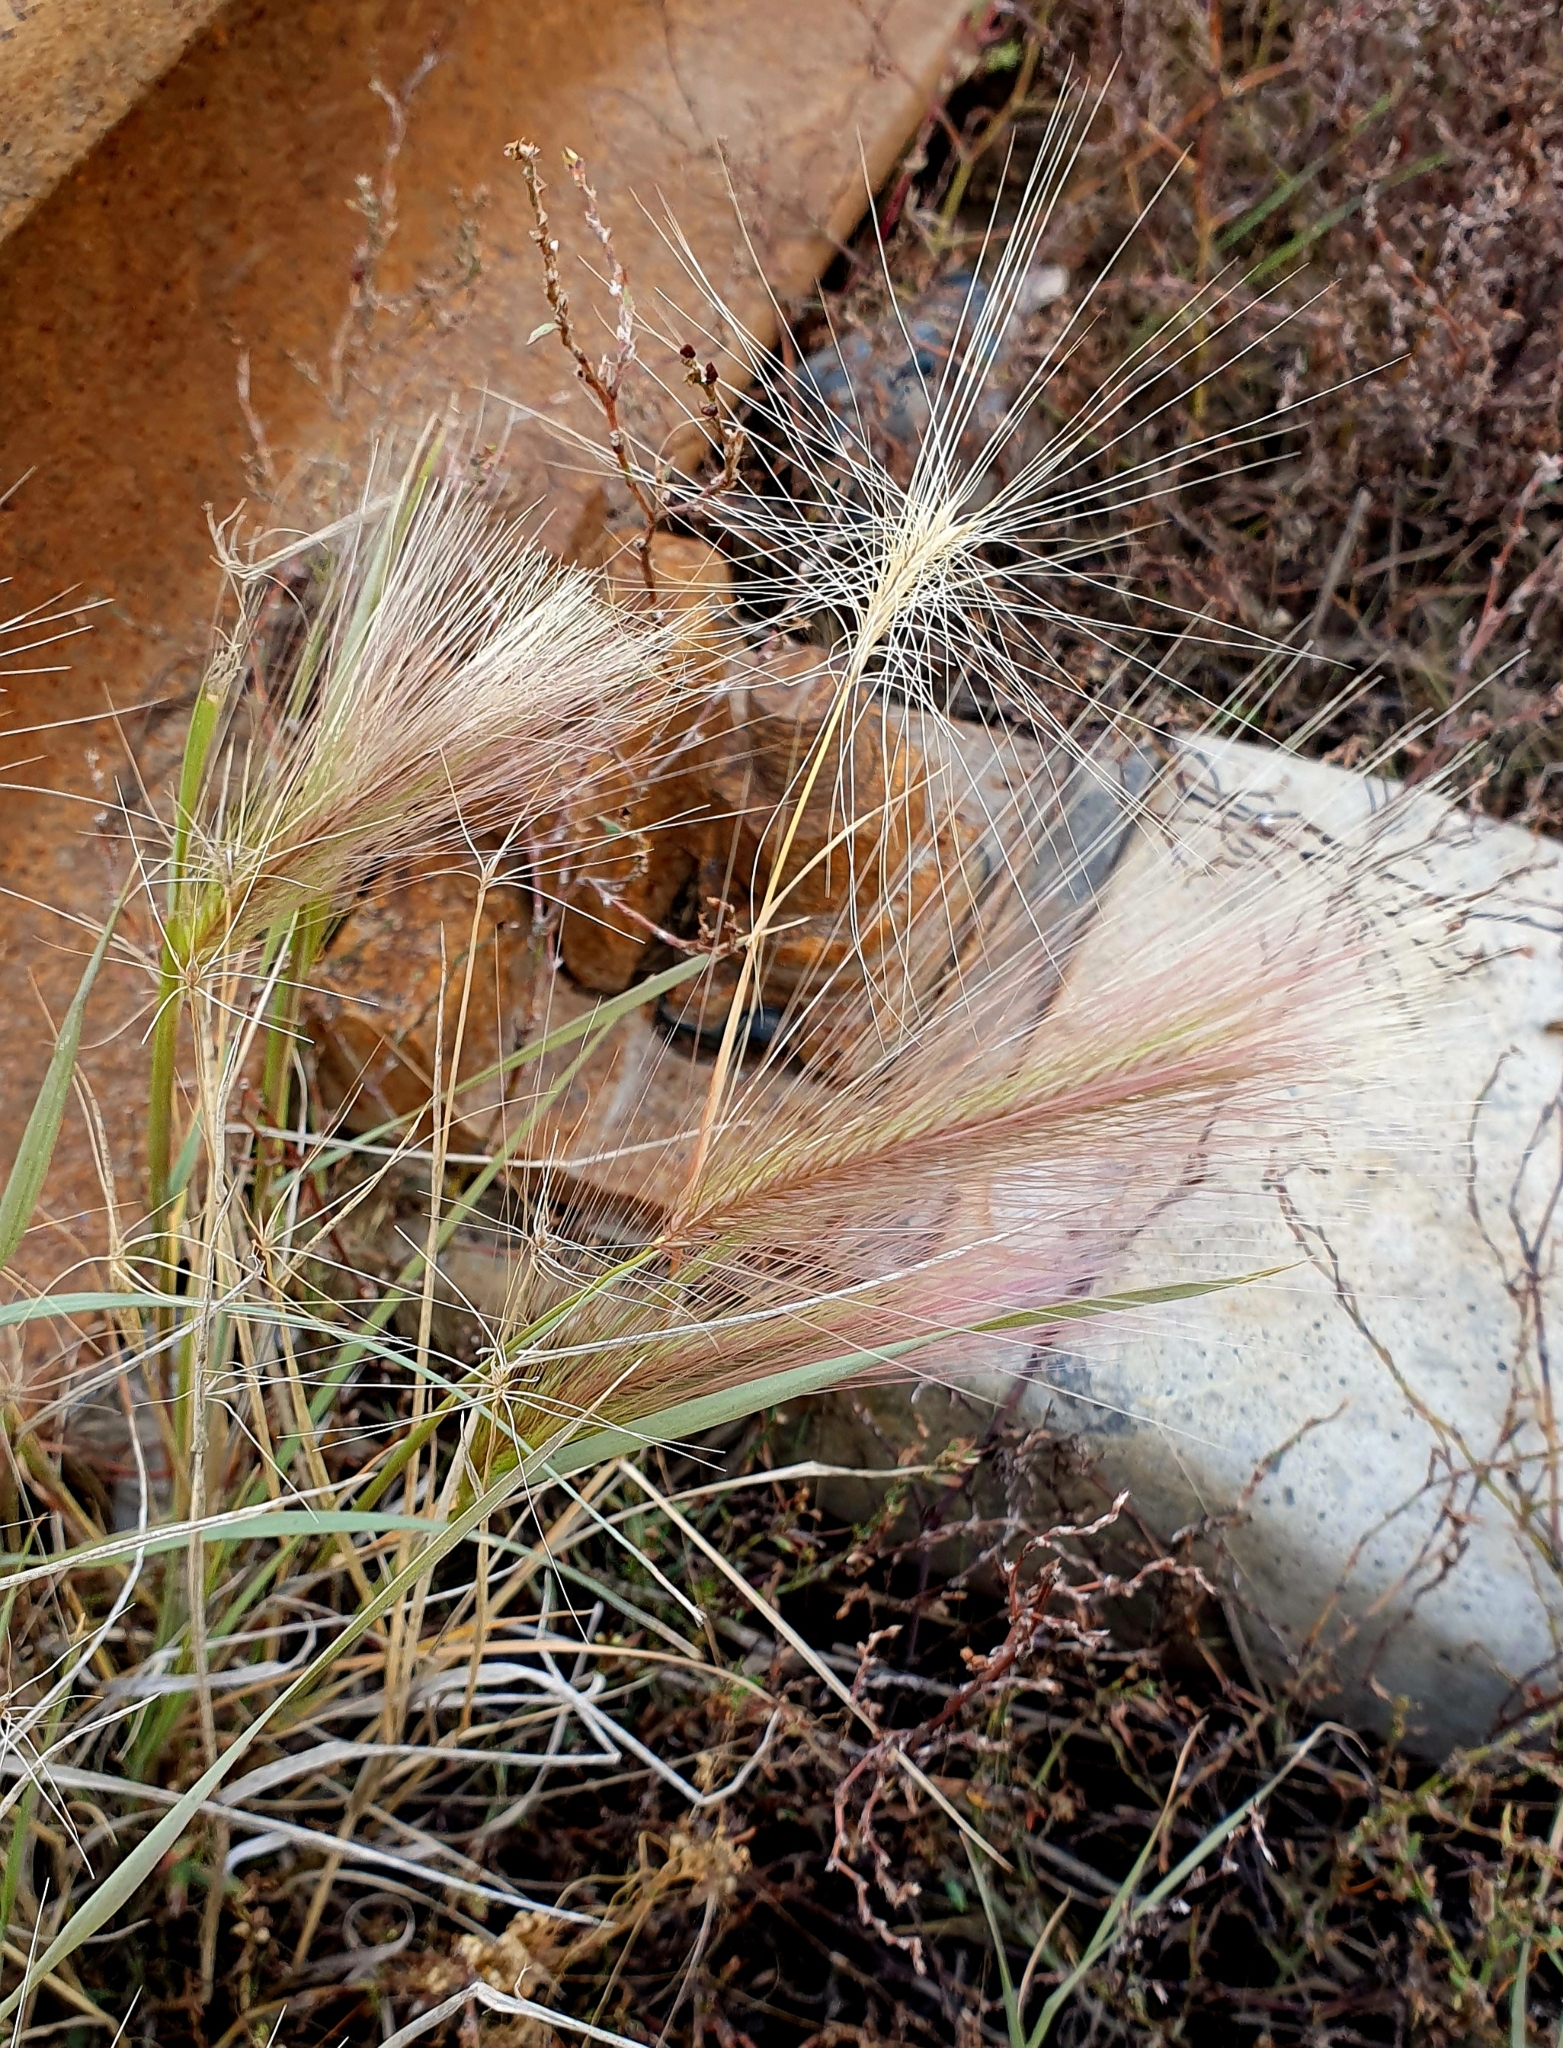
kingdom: Plantae
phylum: Tracheophyta
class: Liliopsida
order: Poales
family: Poaceae
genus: Hordeum
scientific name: Hordeum jubatum
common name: Foxtail barley
